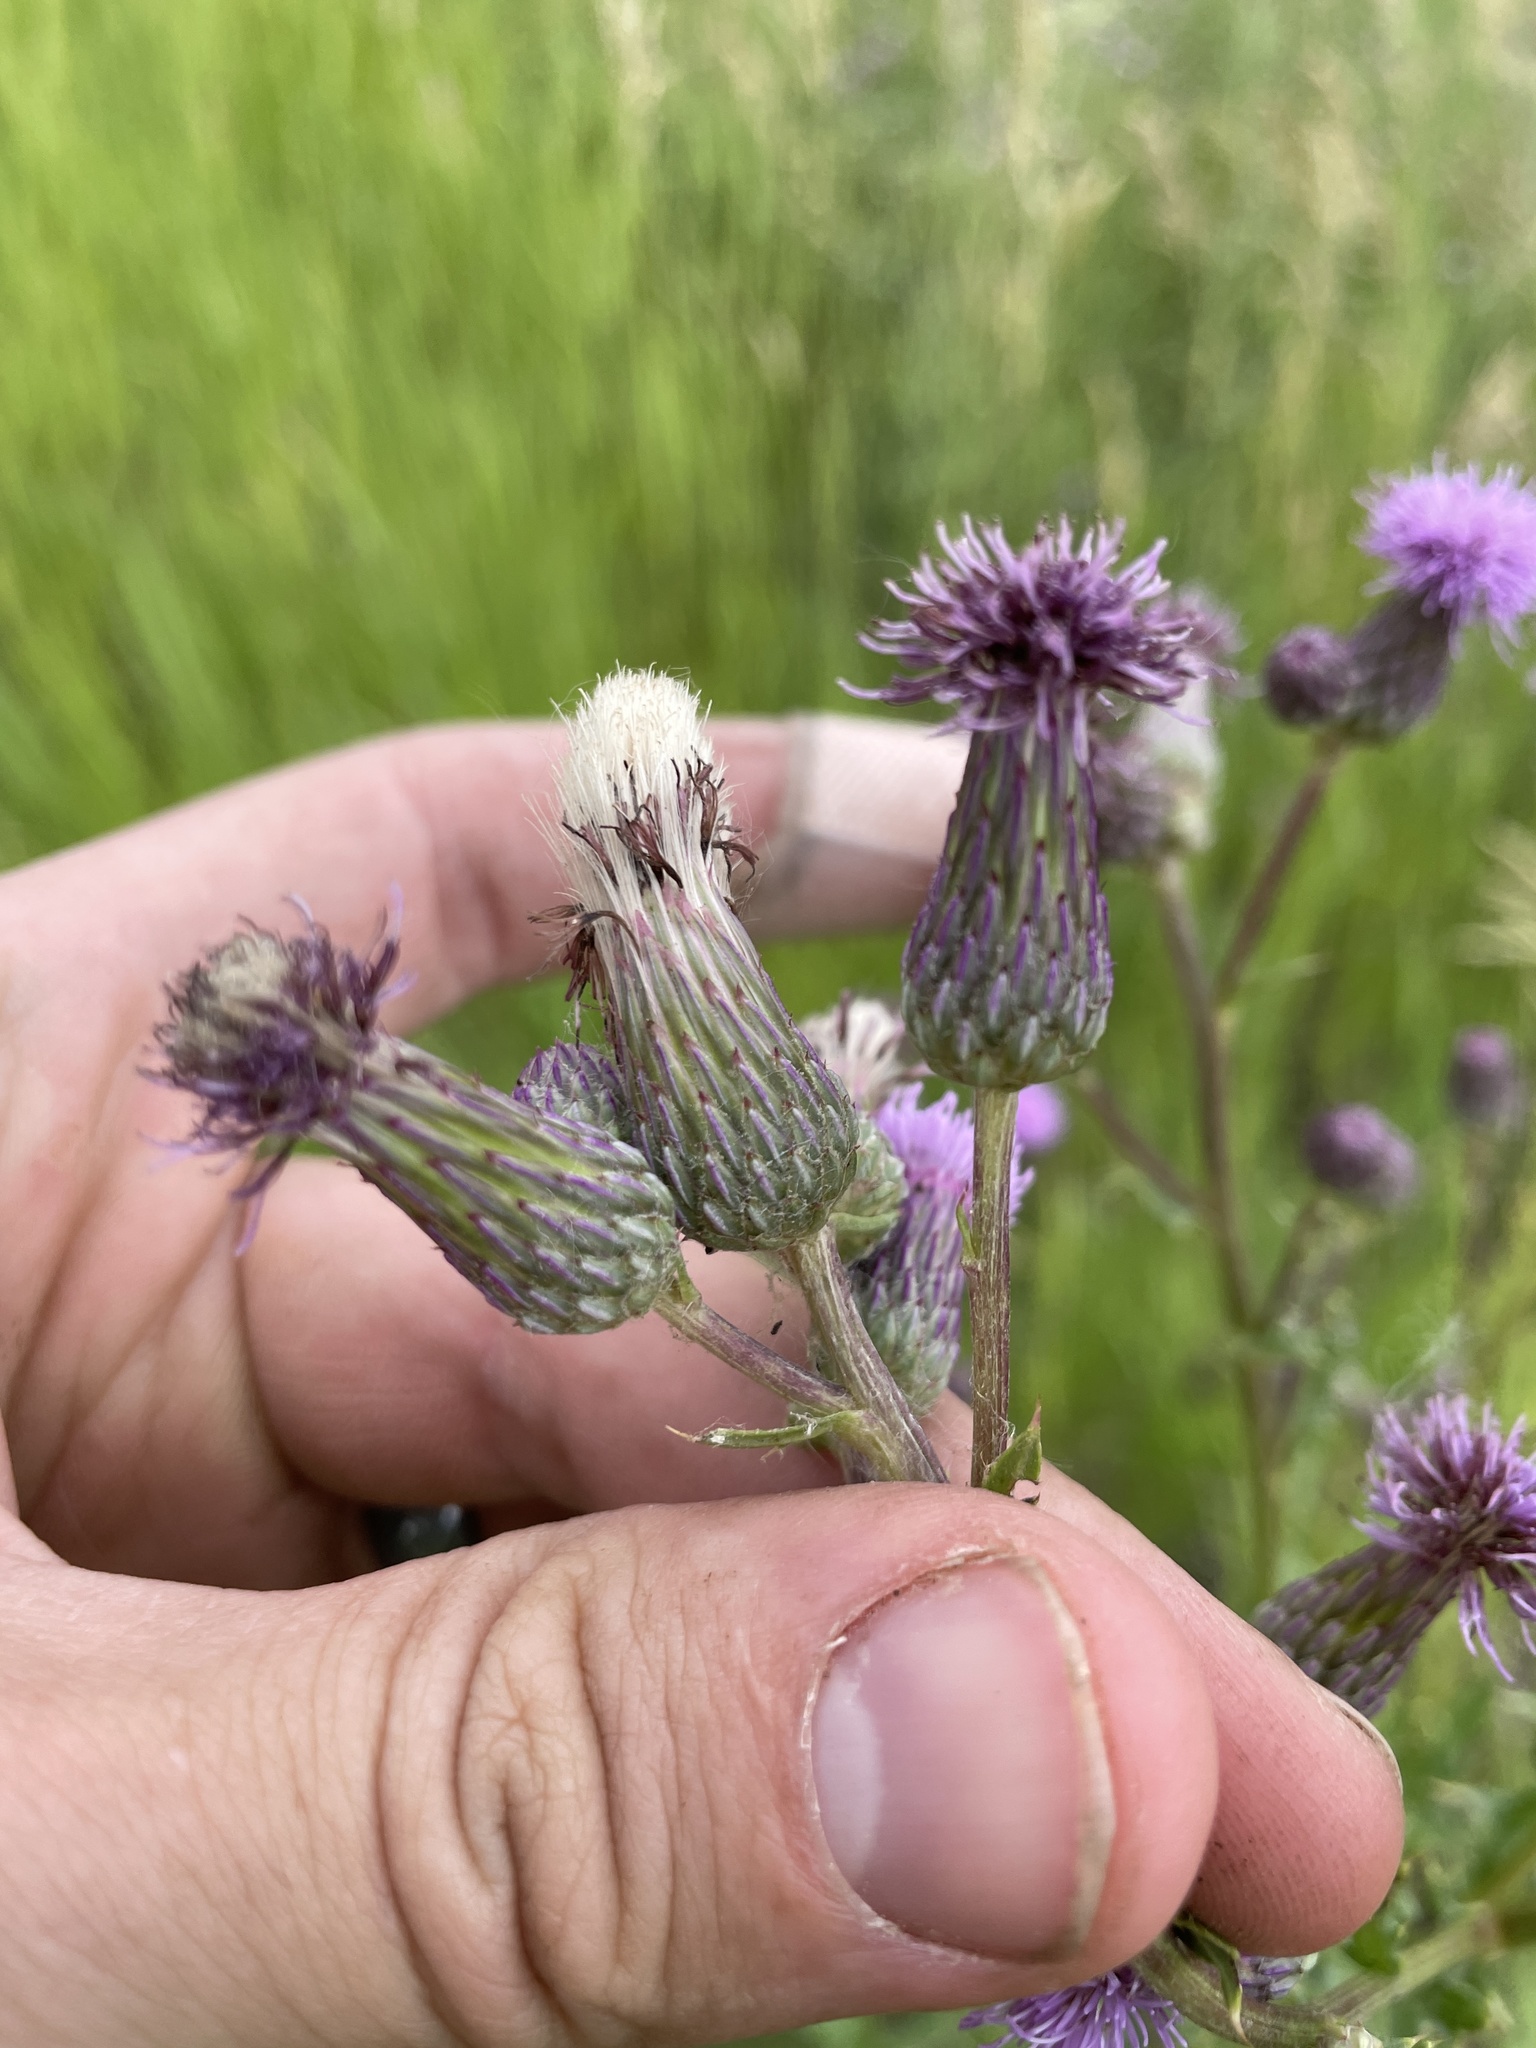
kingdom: Plantae
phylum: Tracheophyta
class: Magnoliopsida
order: Asterales
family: Asteraceae
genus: Cirsium
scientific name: Cirsium arvense
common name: Creeping thistle
